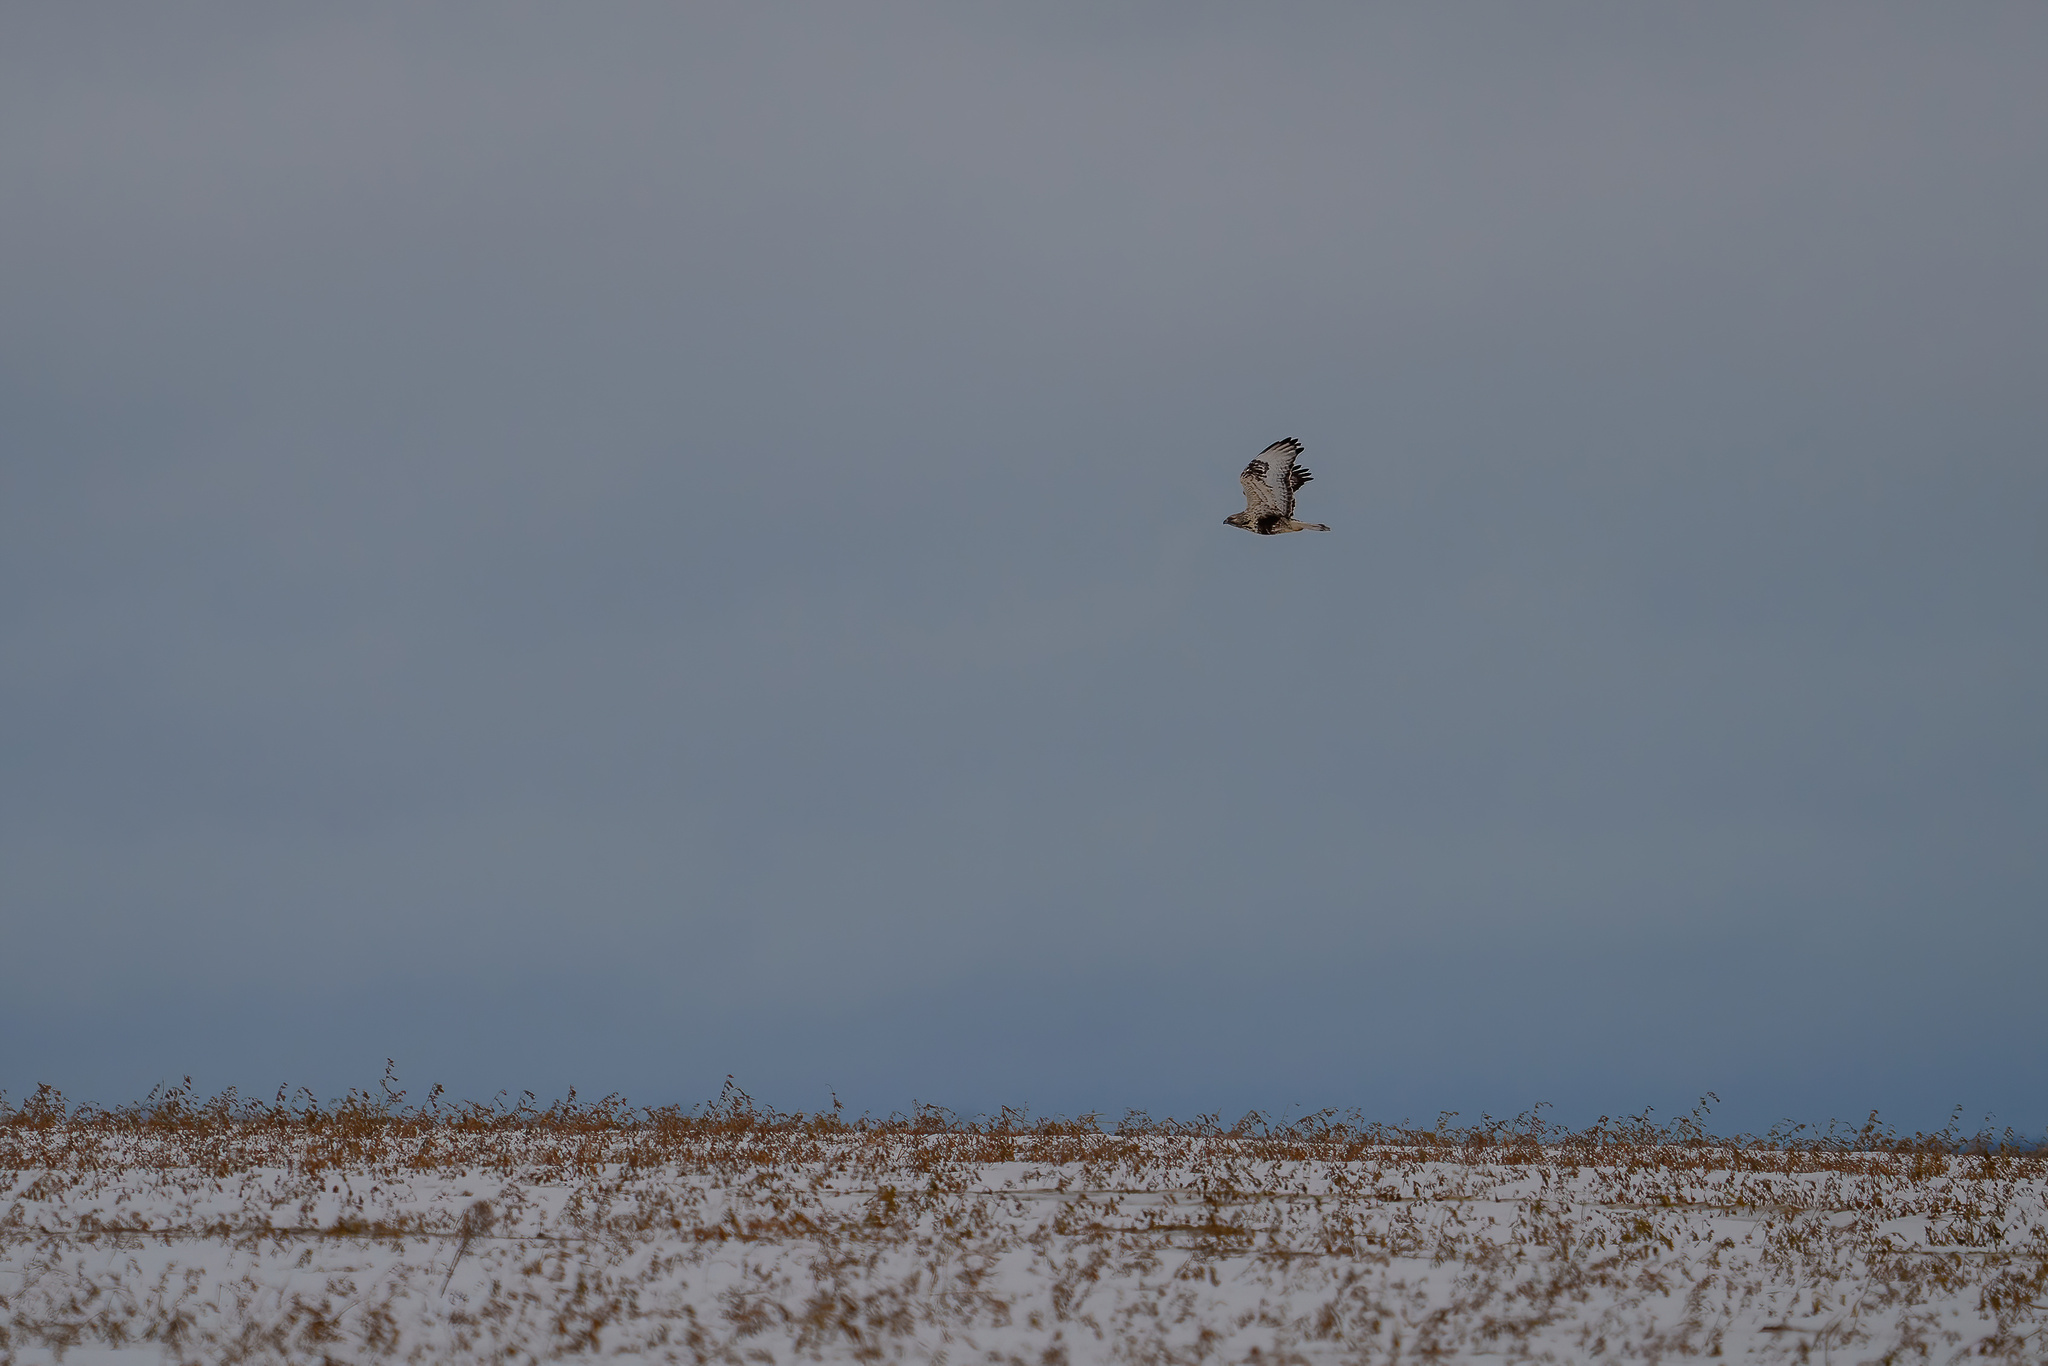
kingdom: Animalia
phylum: Chordata
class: Aves
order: Accipitriformes
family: Accipitridae
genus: Buteo
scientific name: Buteo lagopus
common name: Rough-legged buzzard
